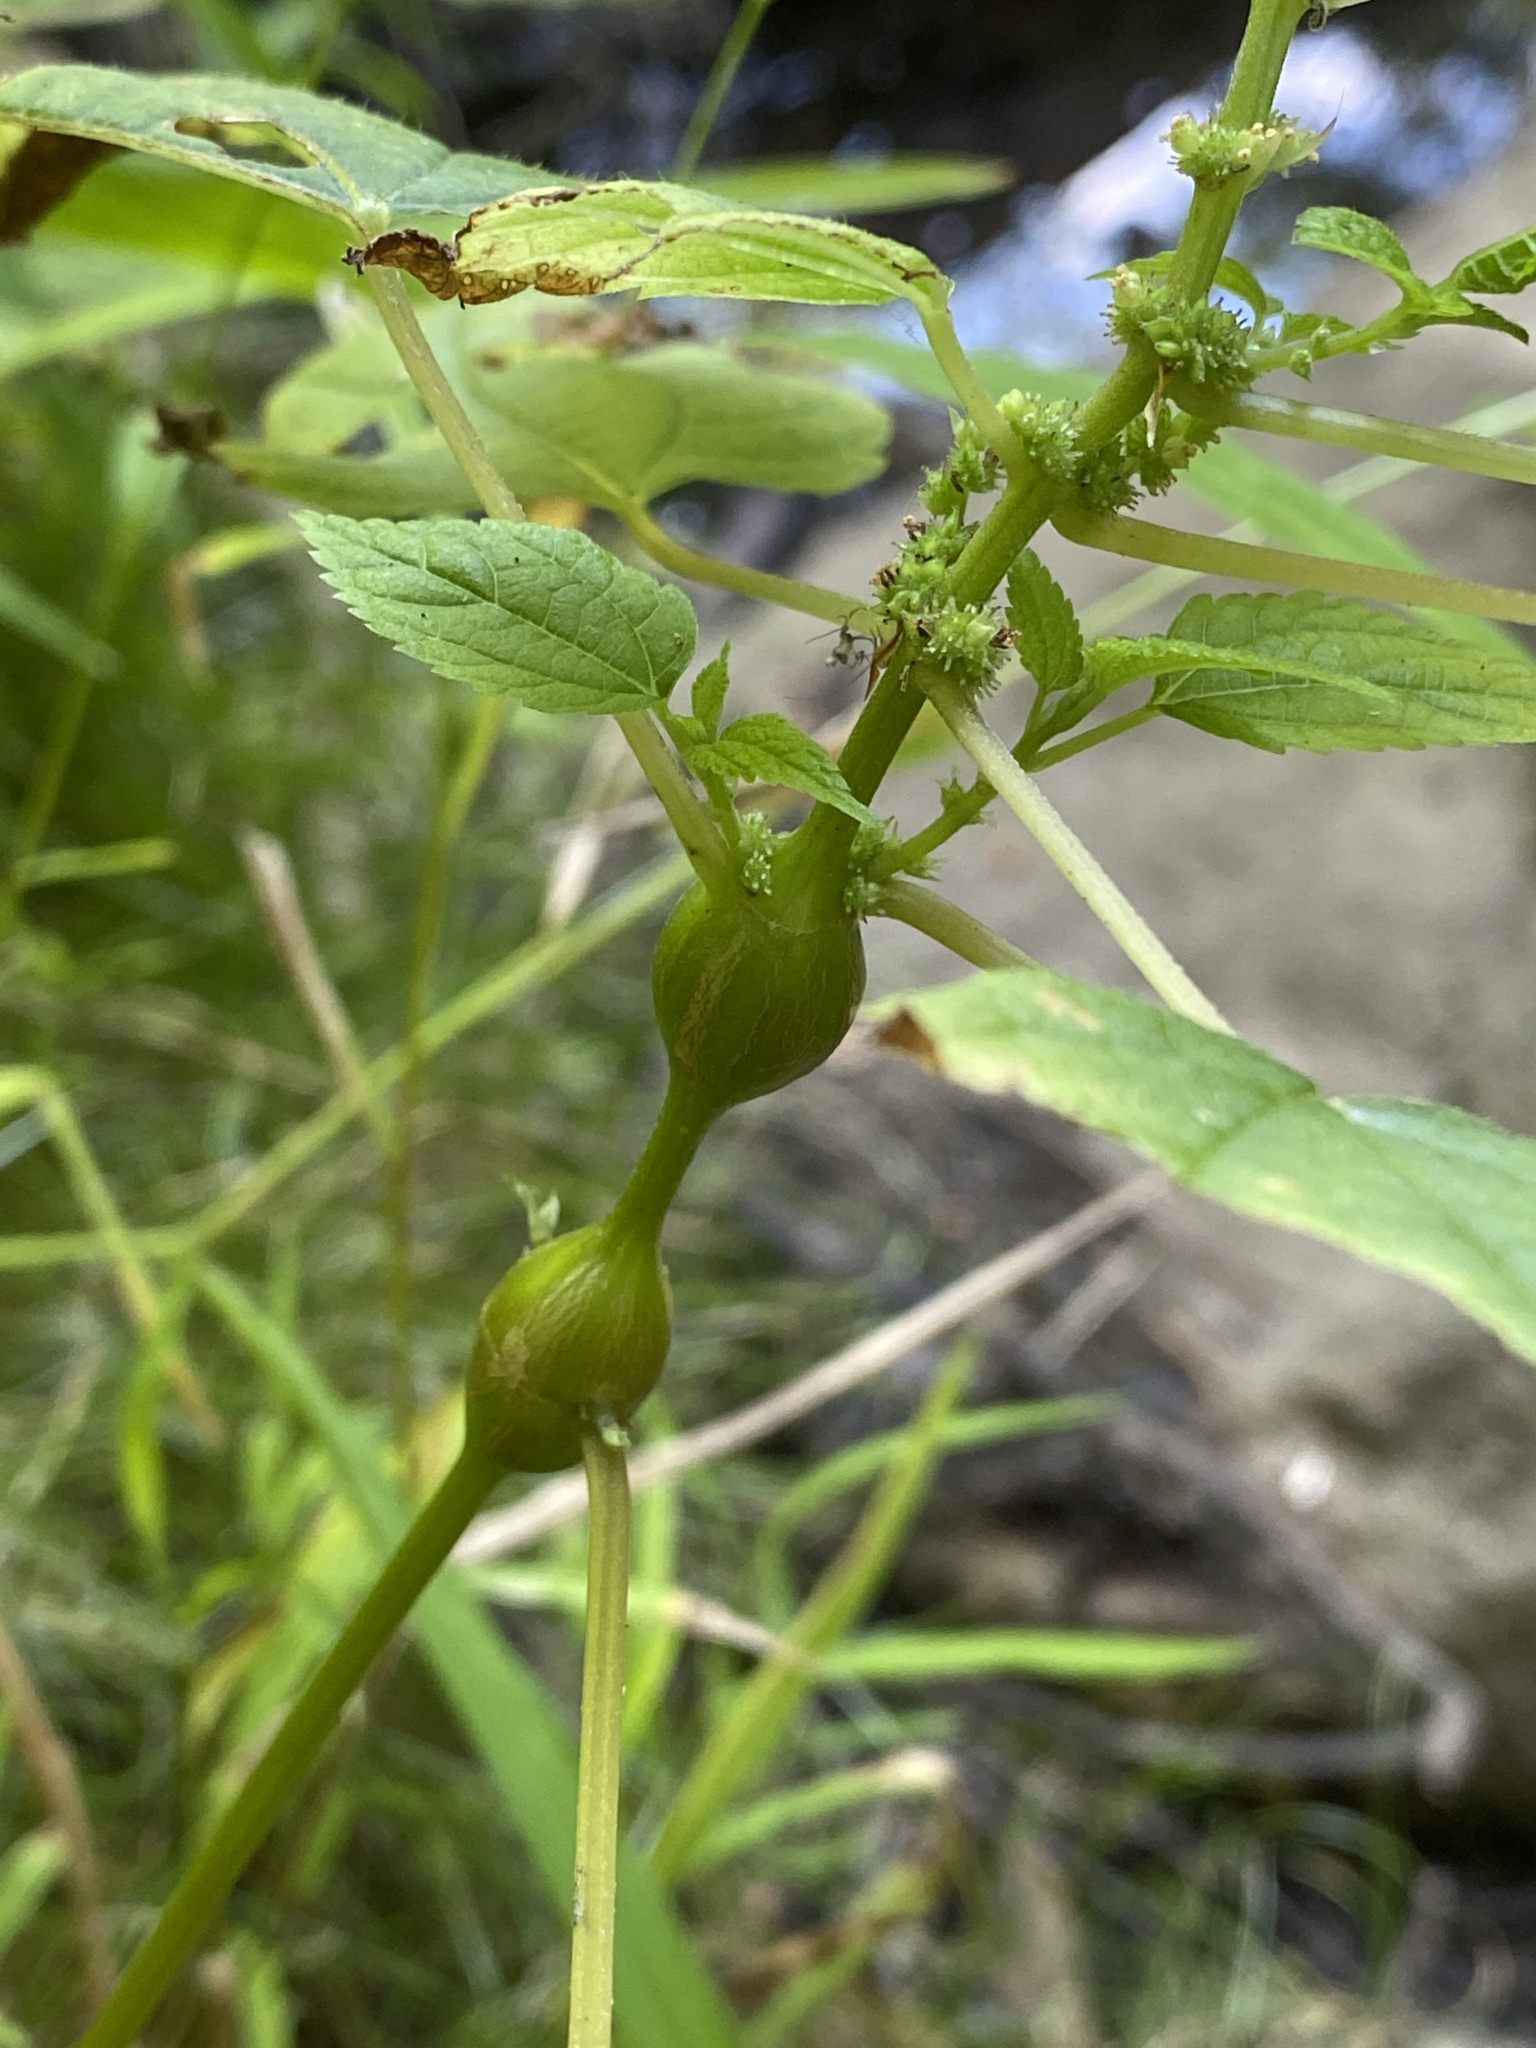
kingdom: Animalia
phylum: Arthropoda
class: Insecta
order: Diptera
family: Cecidomyiidae
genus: Neolasioptera
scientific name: Neolasioptera boehmeriae
